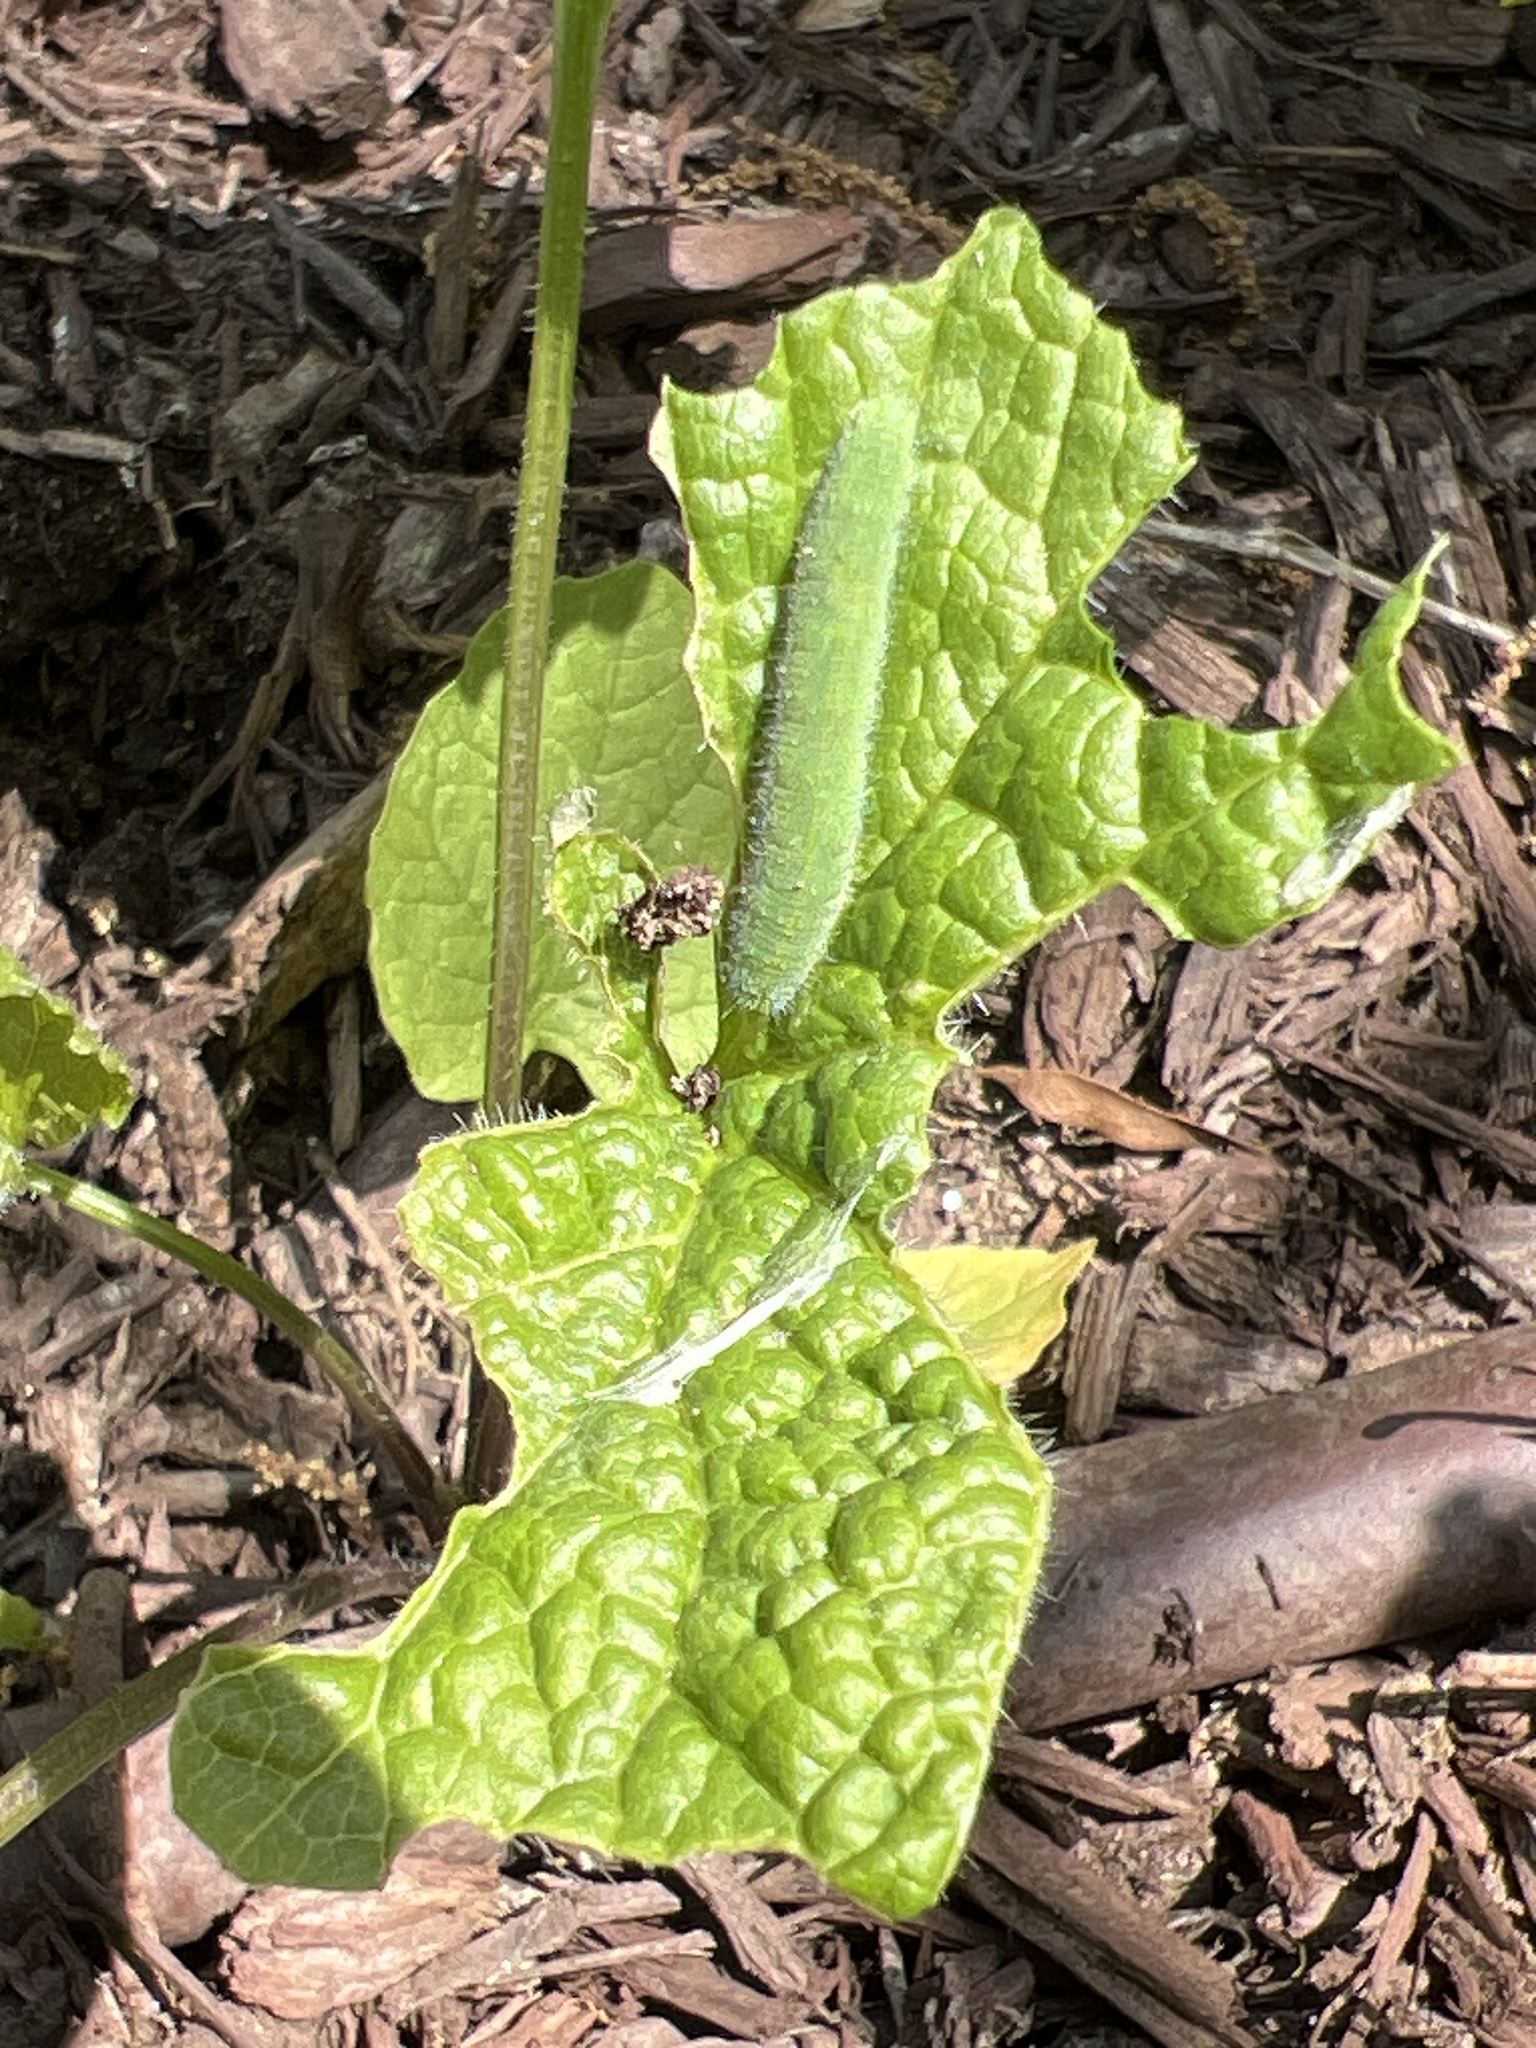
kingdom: Animalia
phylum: Arthropoda
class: Insecta
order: Lepidoptera
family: Pieridae
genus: Pieris
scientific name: Pieris rapae
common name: Small white
